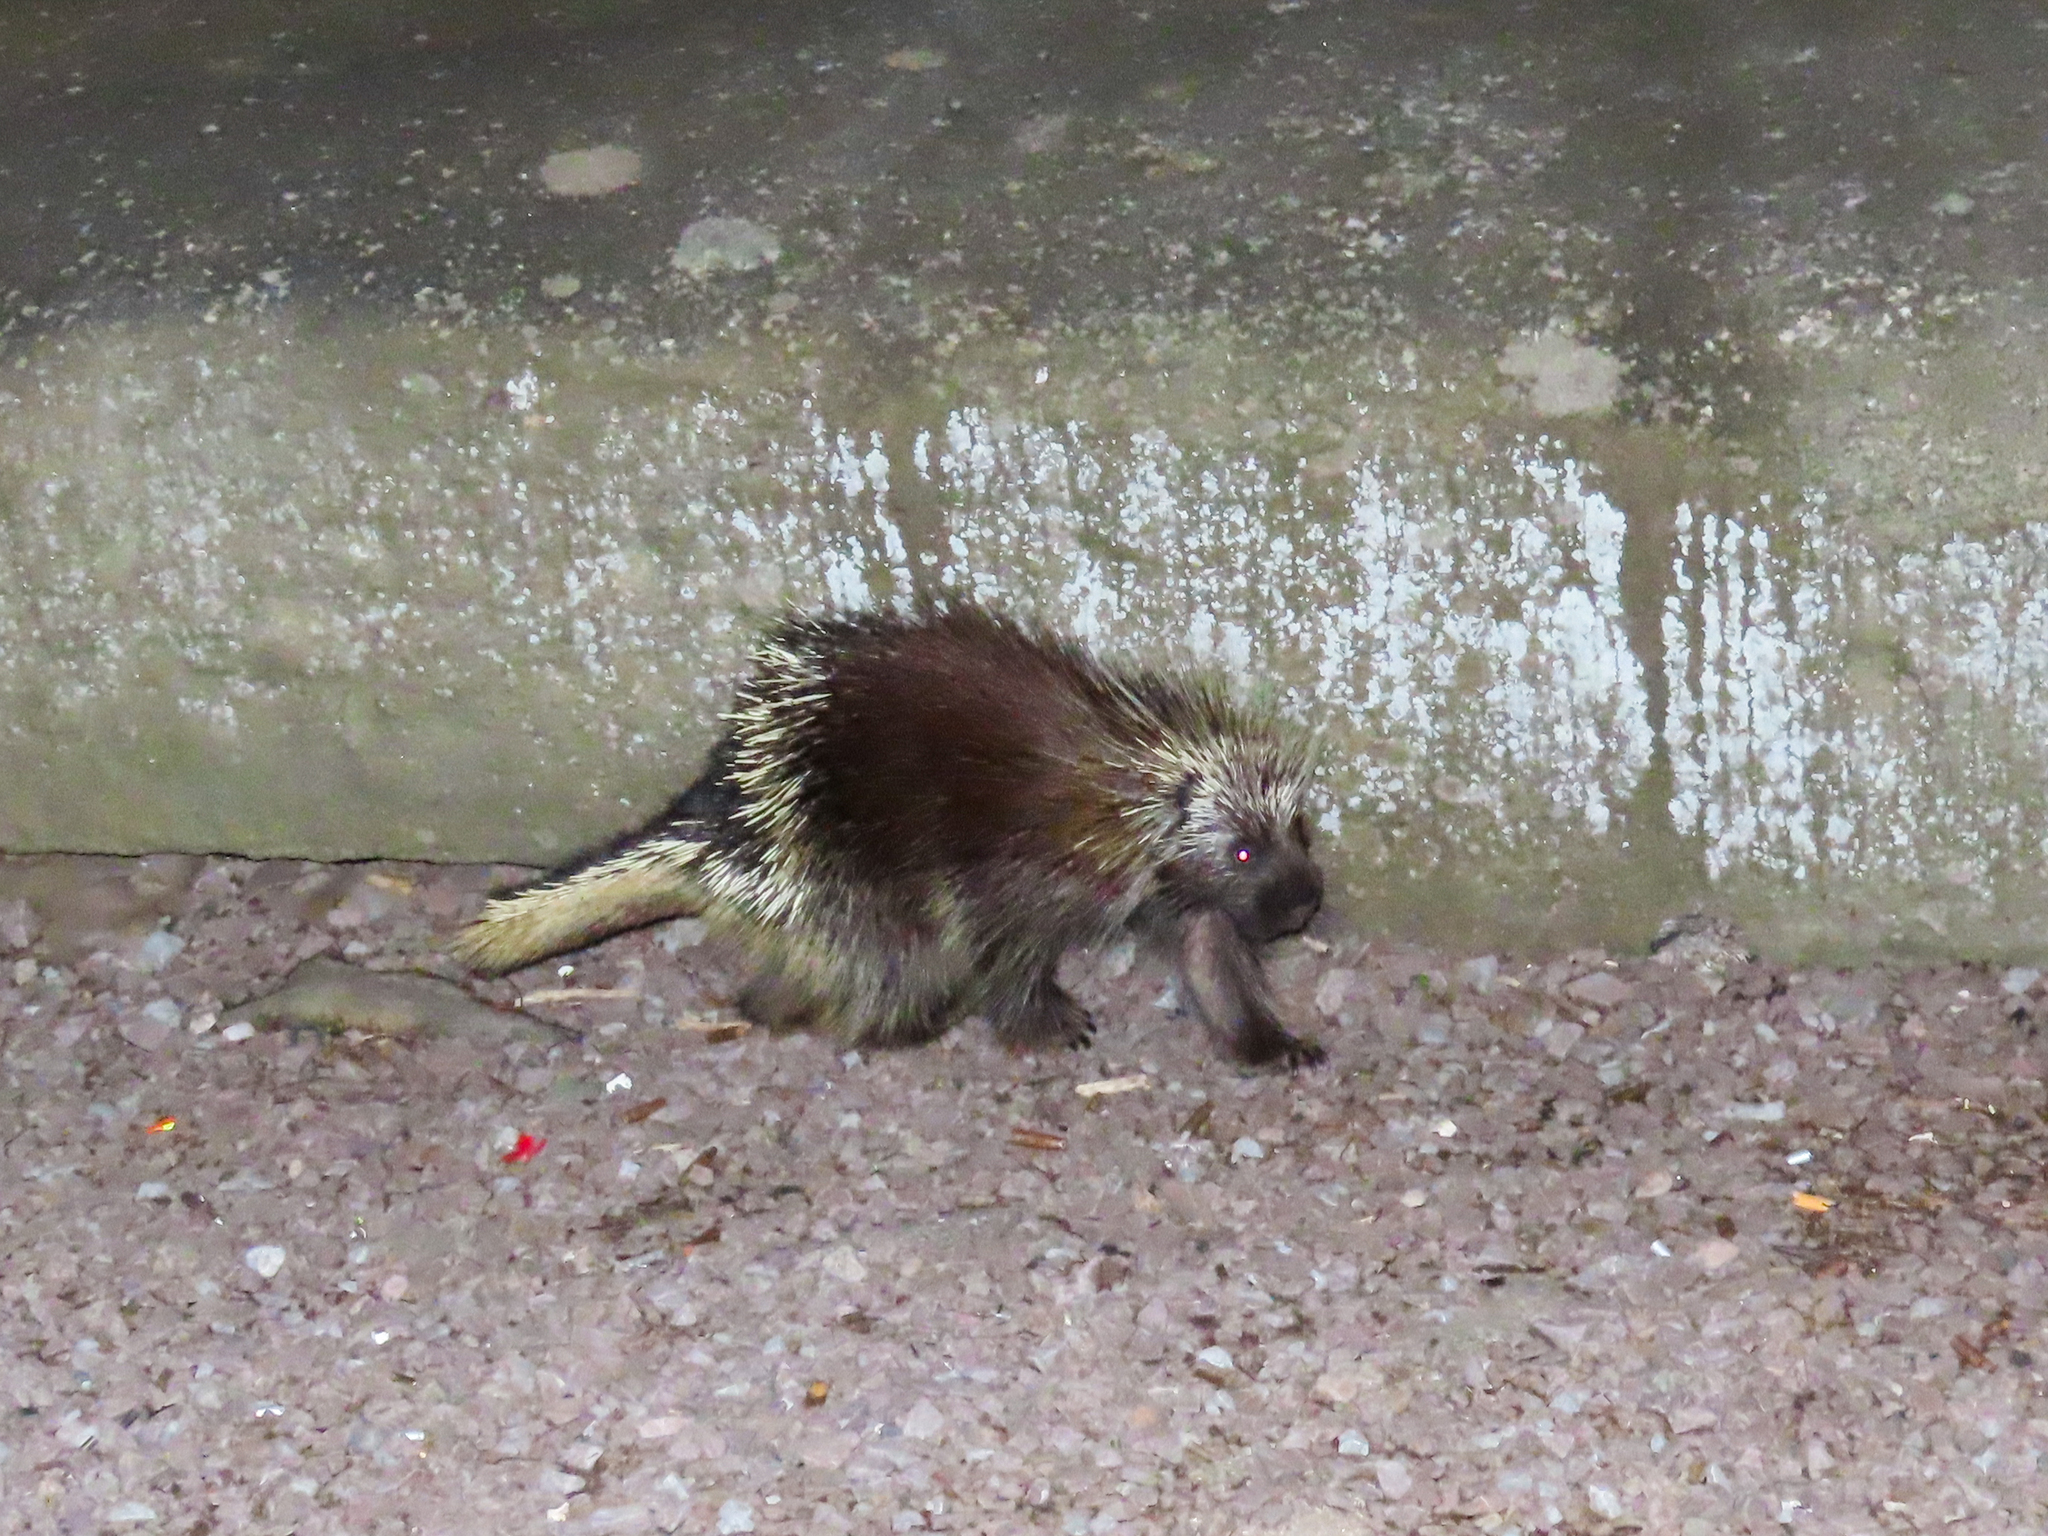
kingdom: Animalia
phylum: Chordata
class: Mammalia
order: Rodentia
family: Erethizontidae
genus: Erethizon
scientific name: Erethizon dorsatus
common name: North american porcupine
